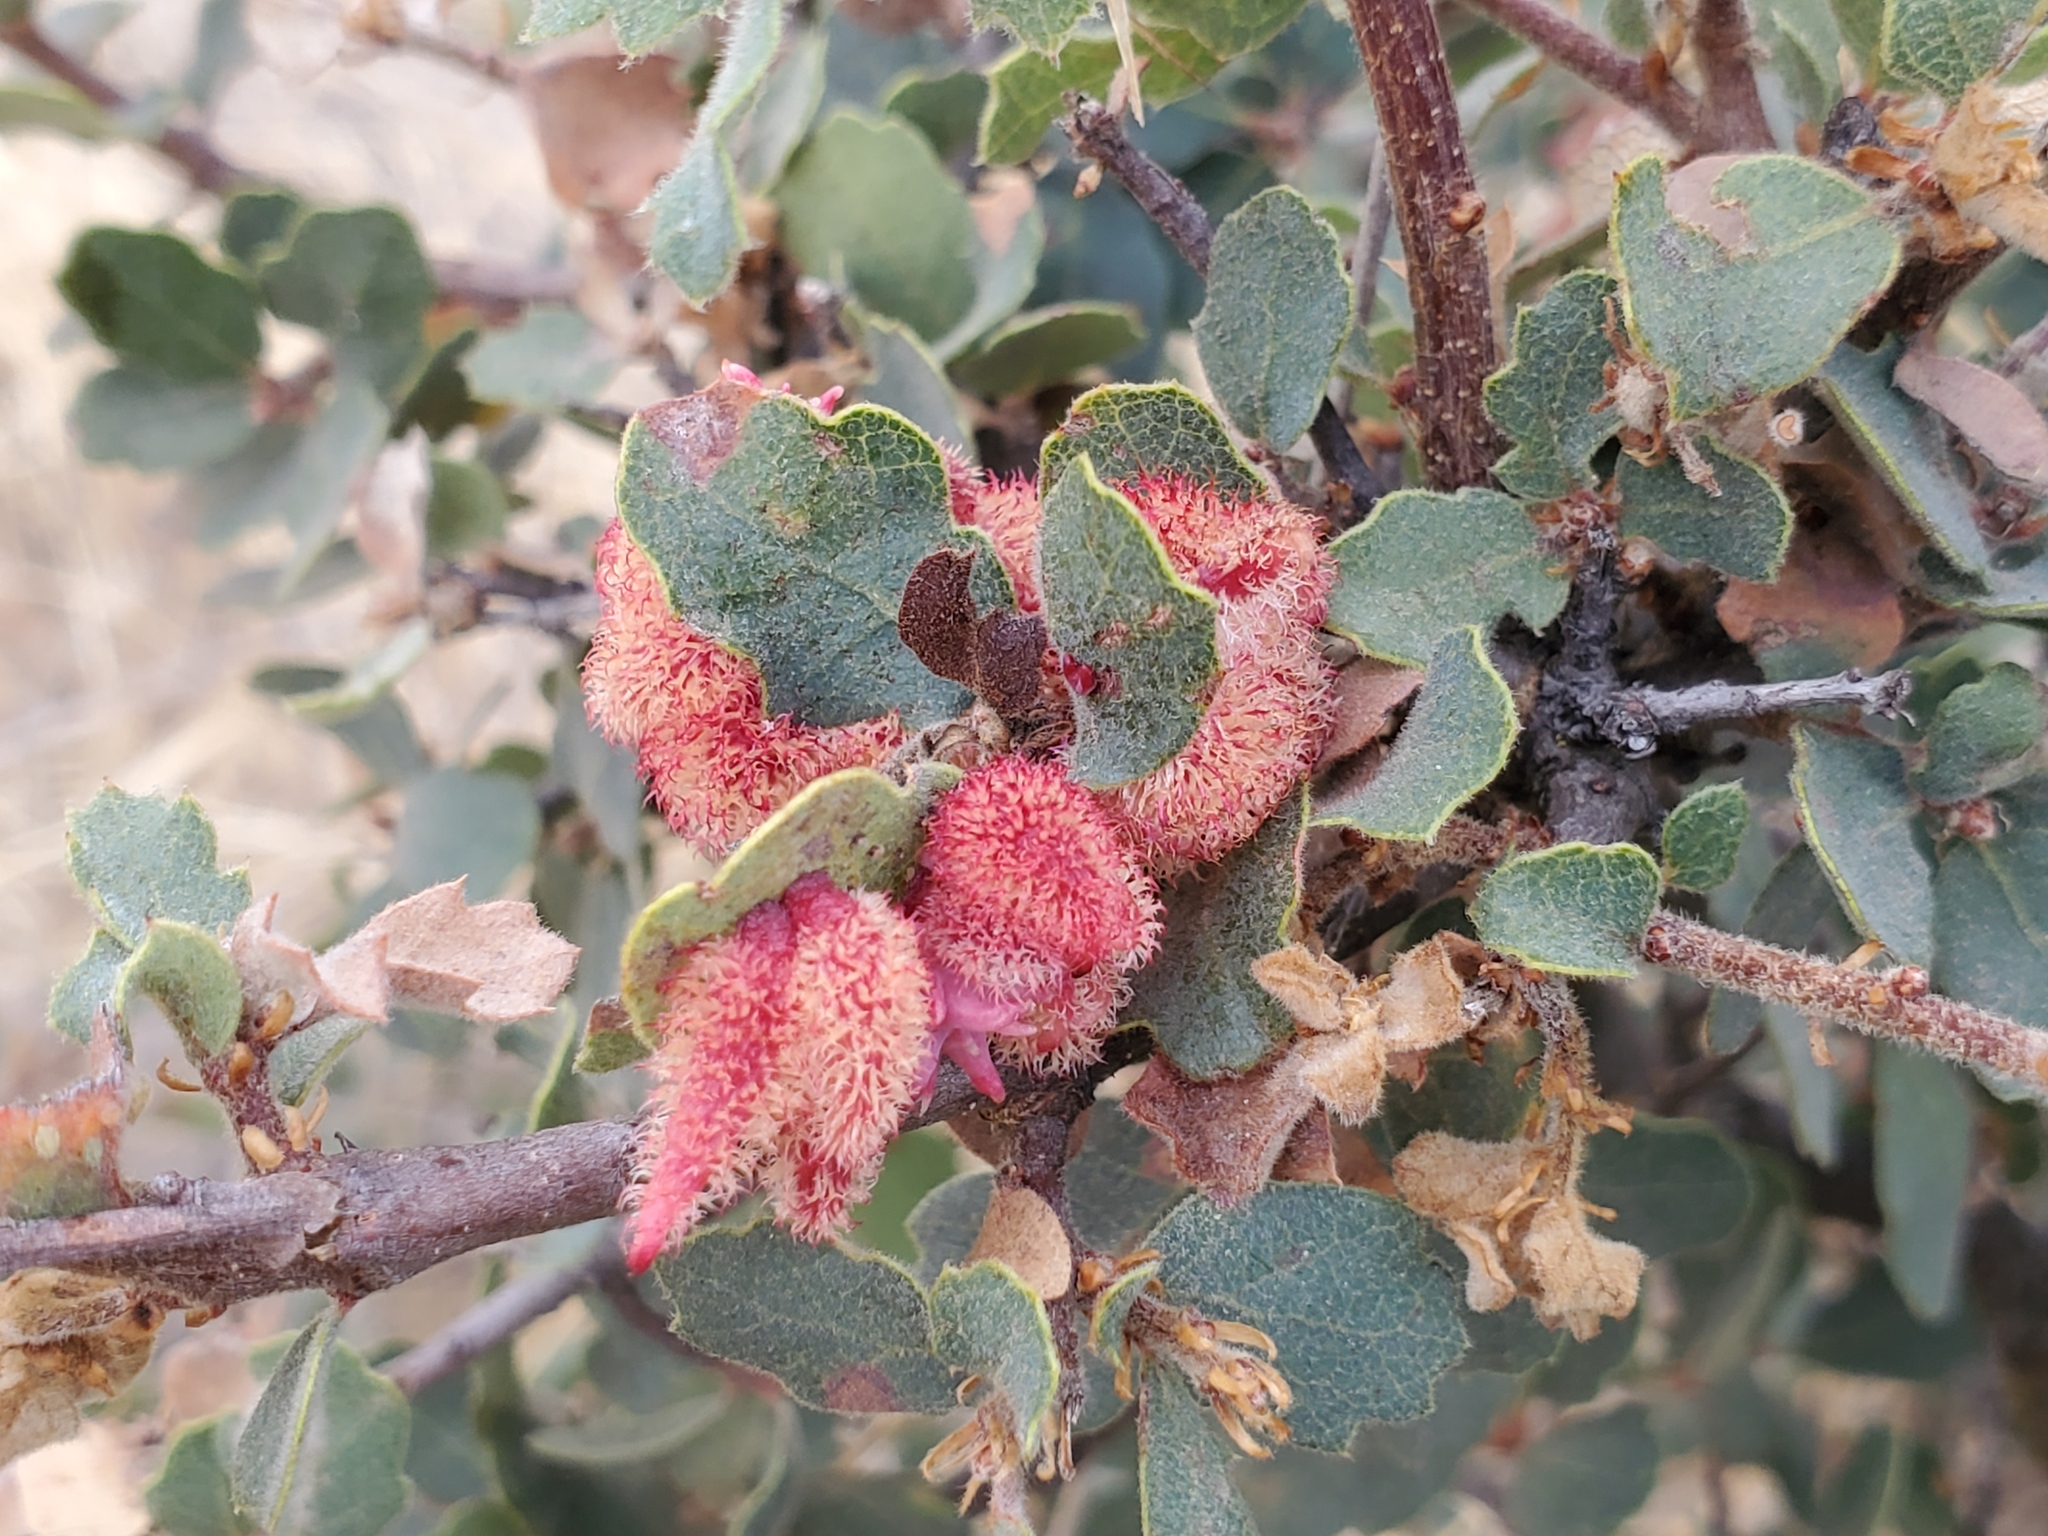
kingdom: Animalia
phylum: Arthropoda
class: Insecta
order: Hymenoptera
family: Cynipidae
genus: Andricus
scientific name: Andricus
